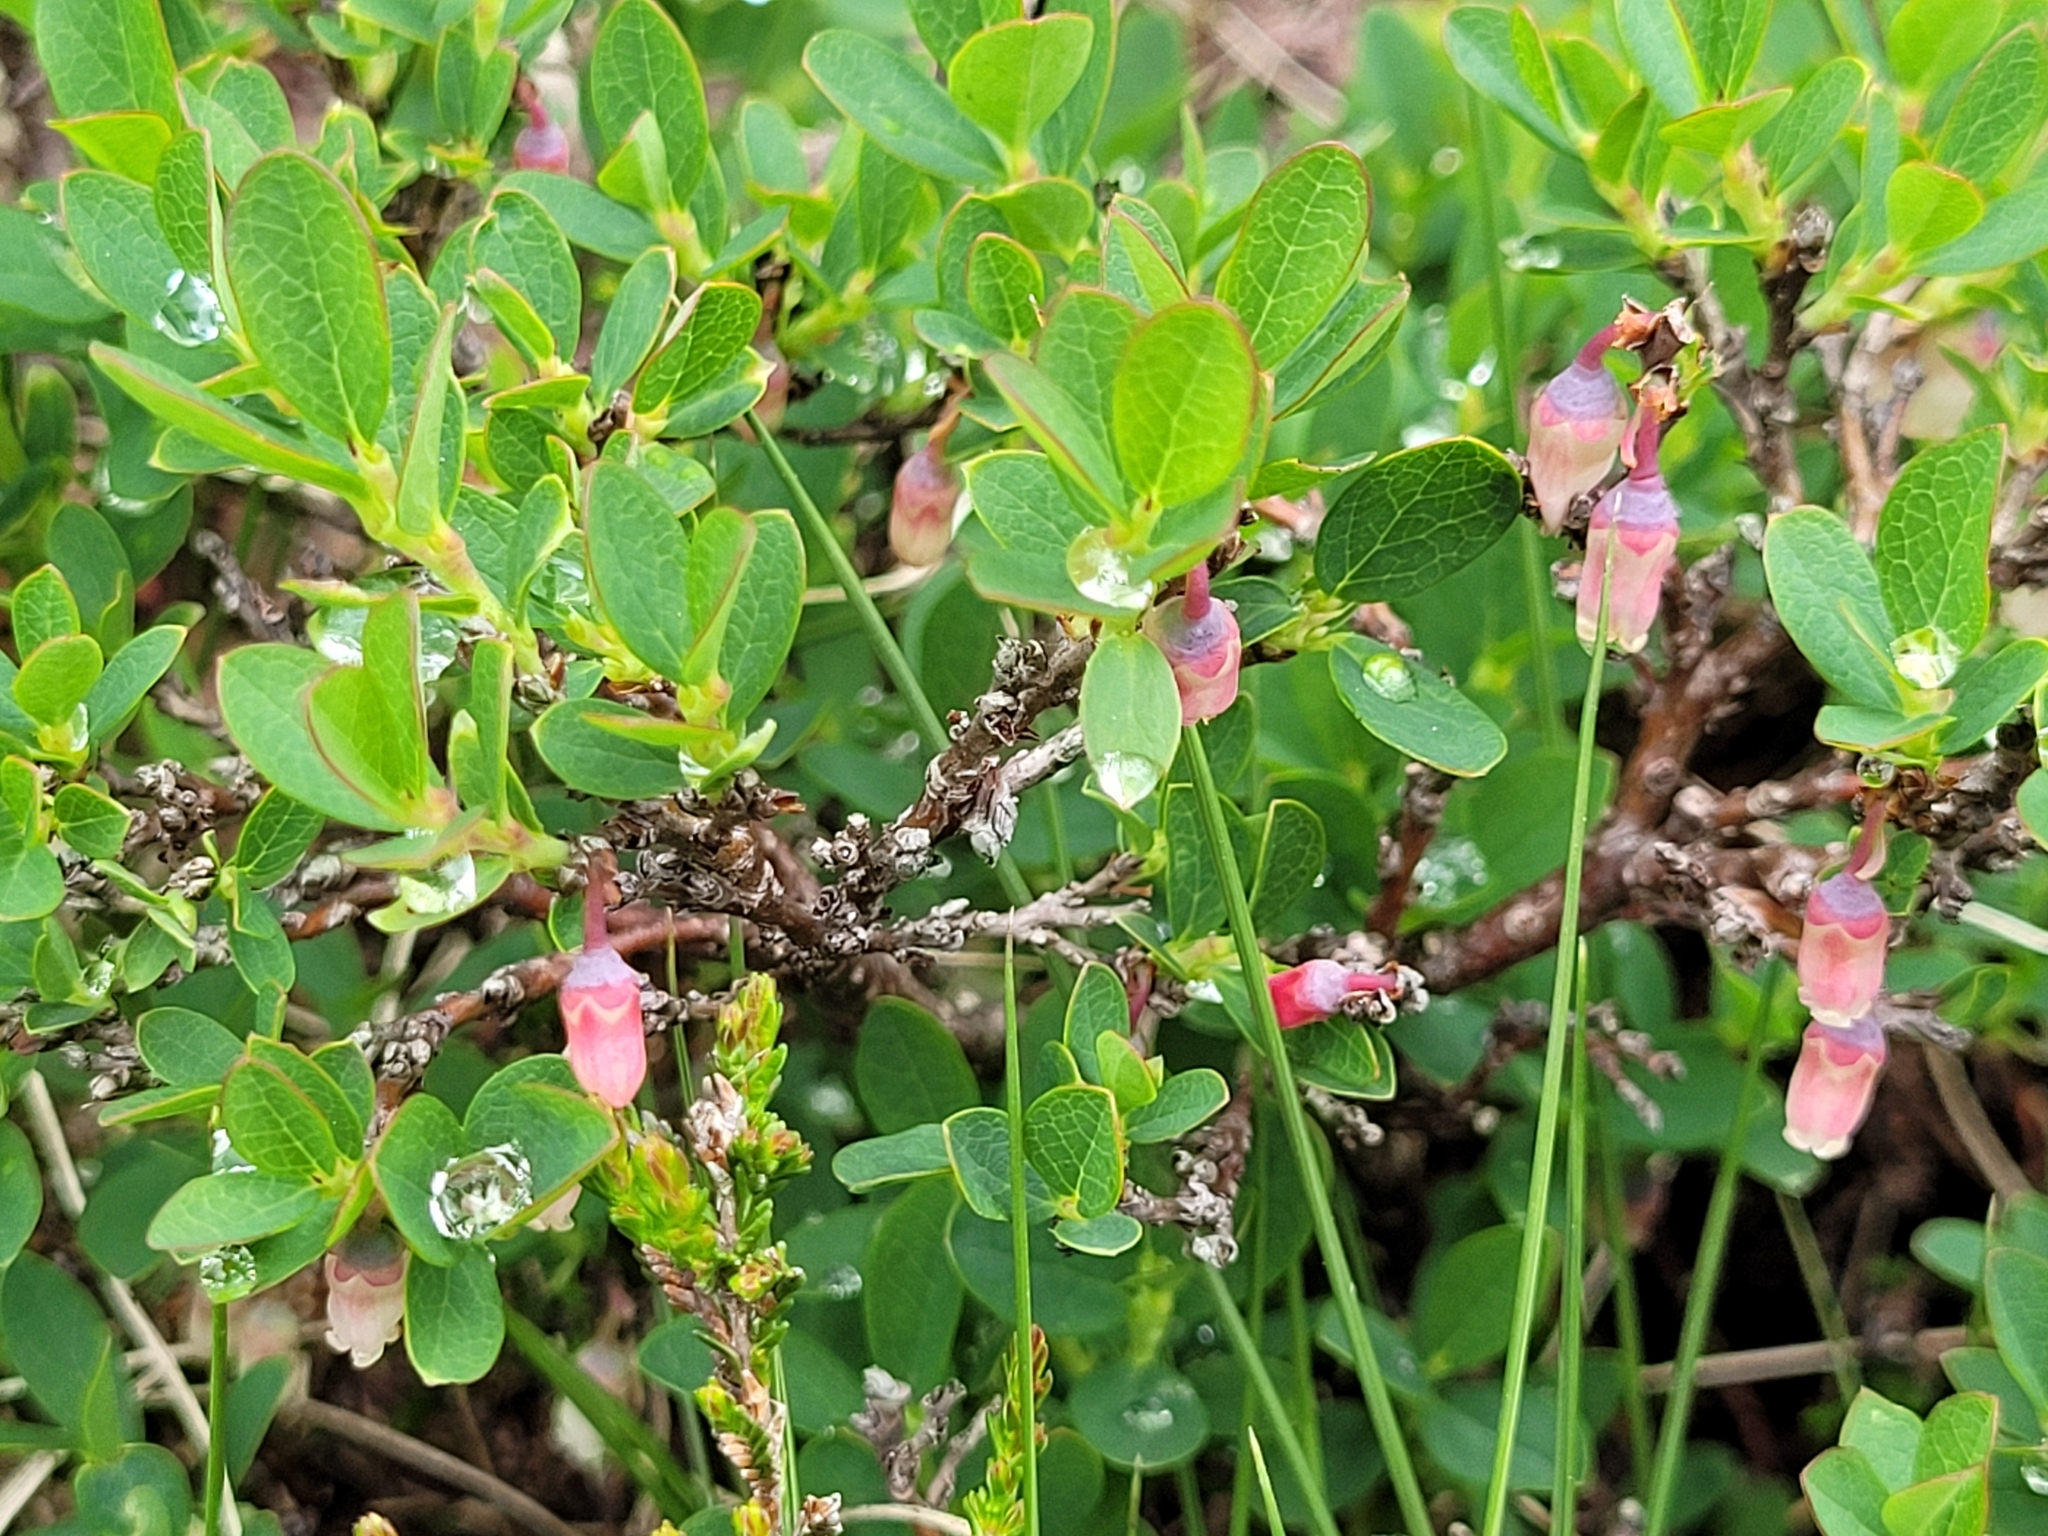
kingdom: Plantae
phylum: Tracheophyta
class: Magnoliopsida
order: Ericales
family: Ericaceae
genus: Vaccinium
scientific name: Vaccinium uliginosum
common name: Bog bilberry
